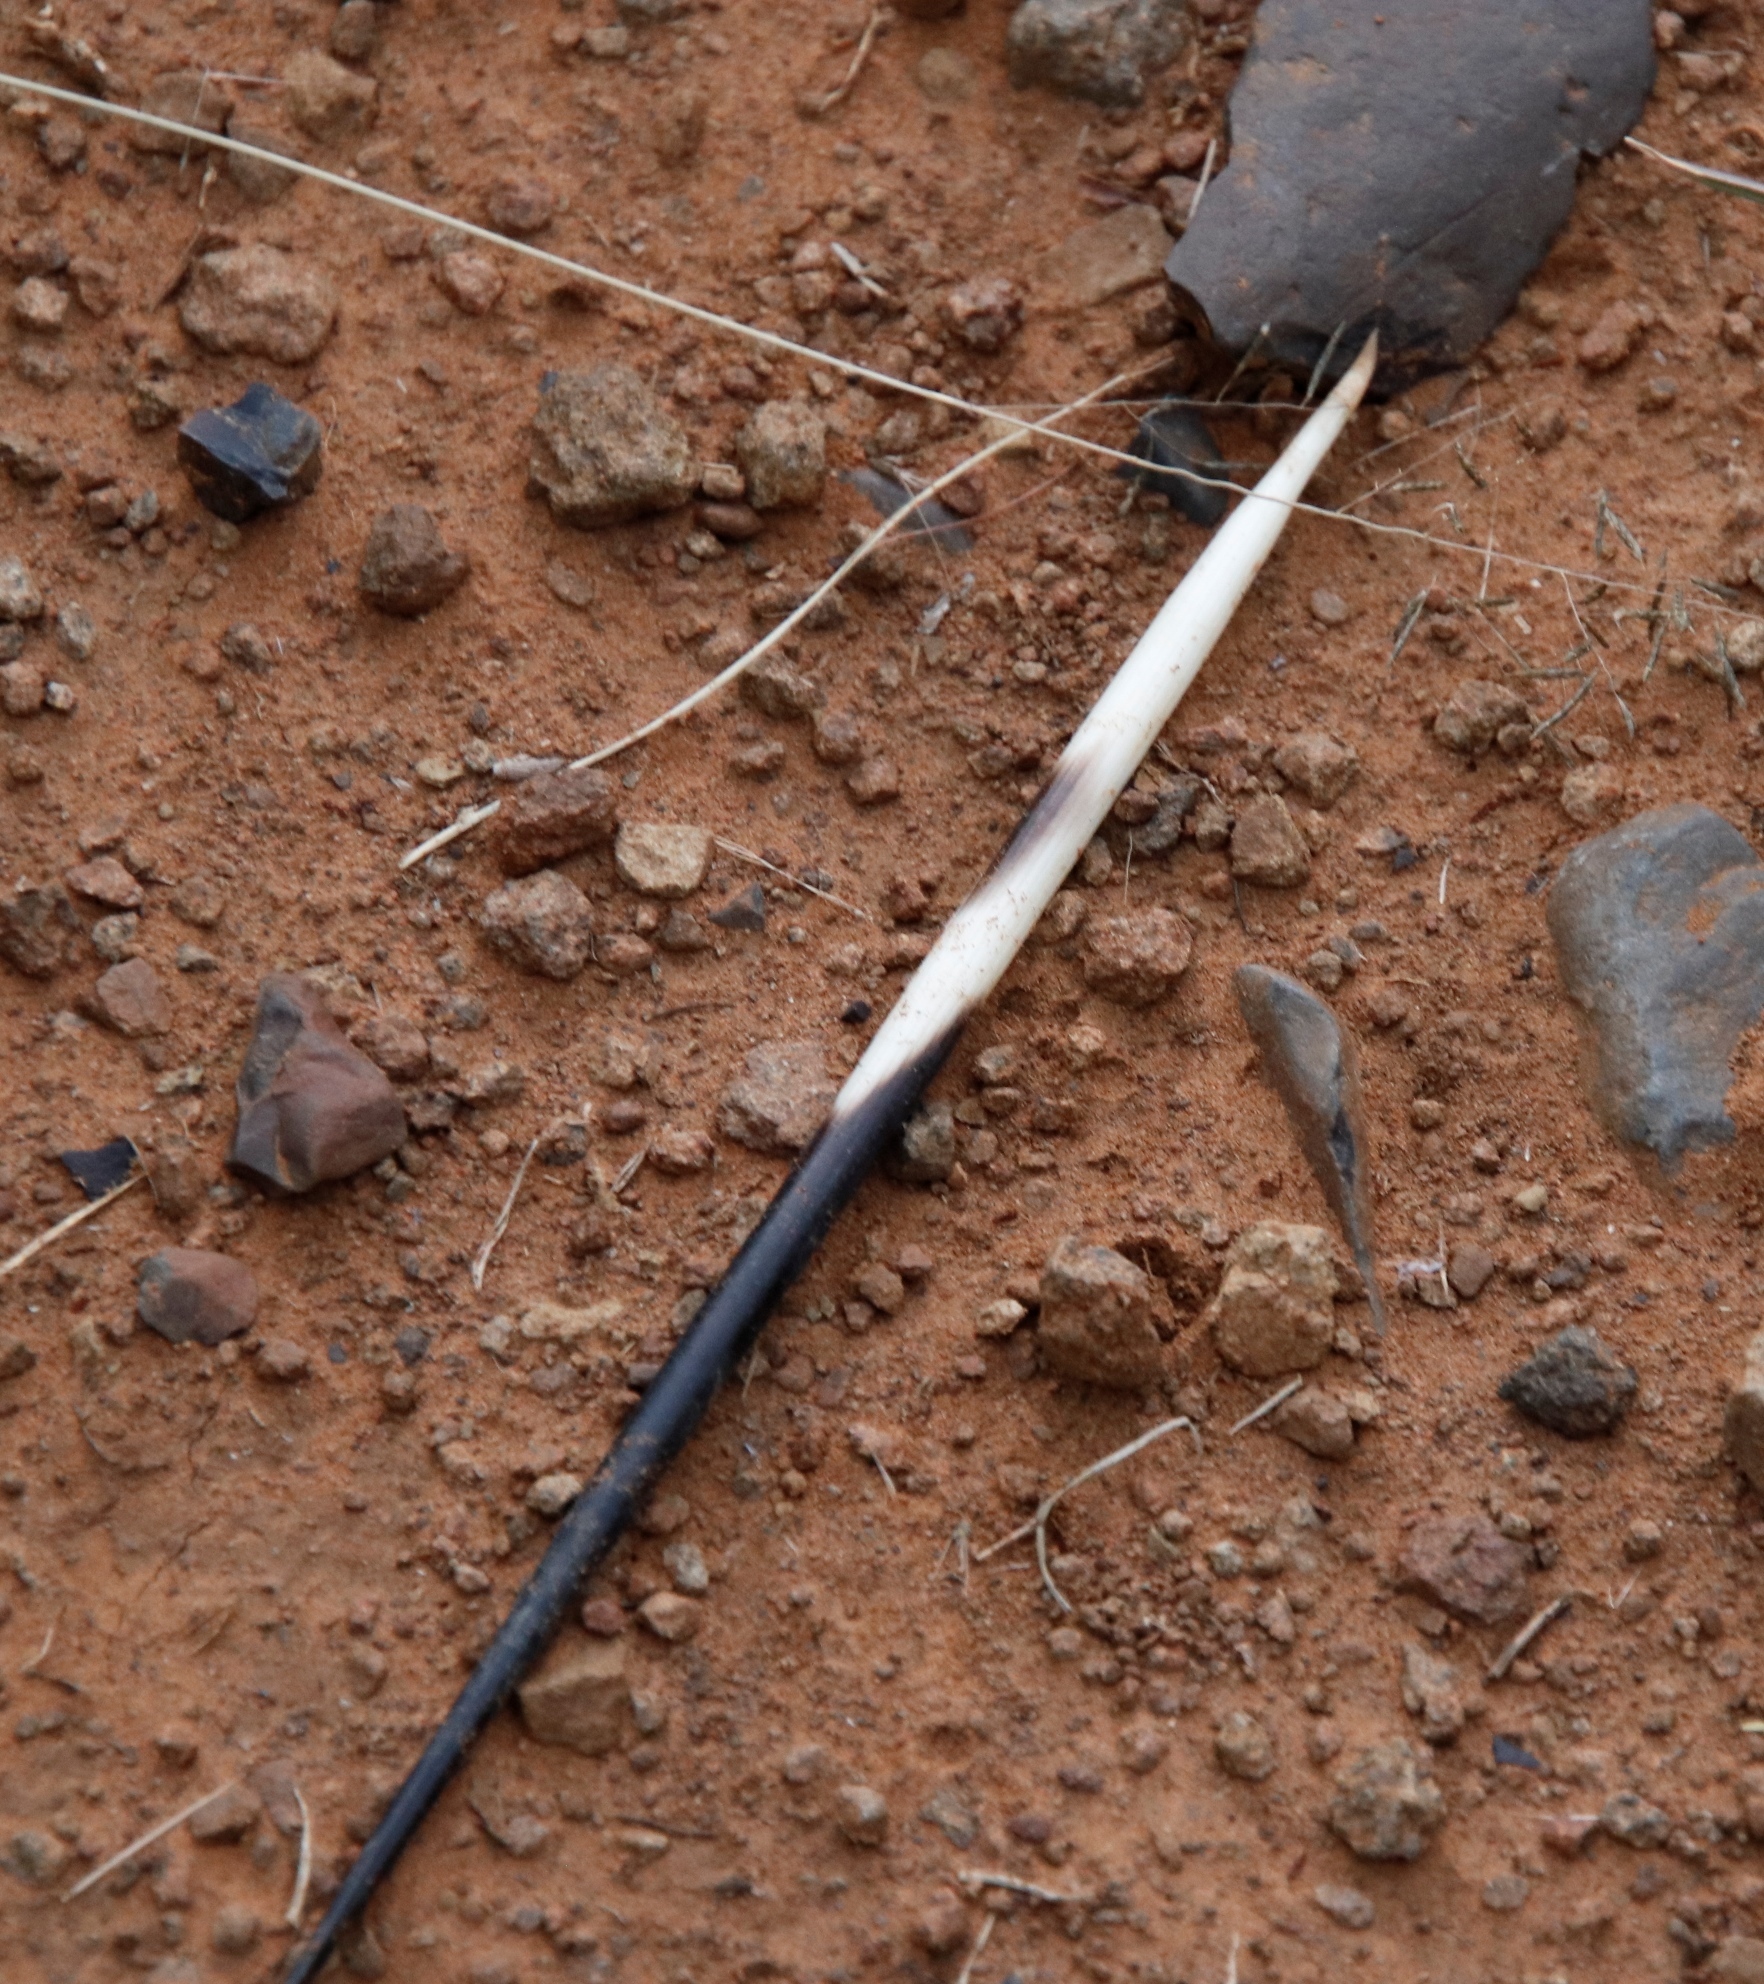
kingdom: Animalia
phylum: Chordata
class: Mammalia
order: Rodentia
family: Hystricidae
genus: Hystrix
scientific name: Hystrix africaeaustralis
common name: Cape porcupine
